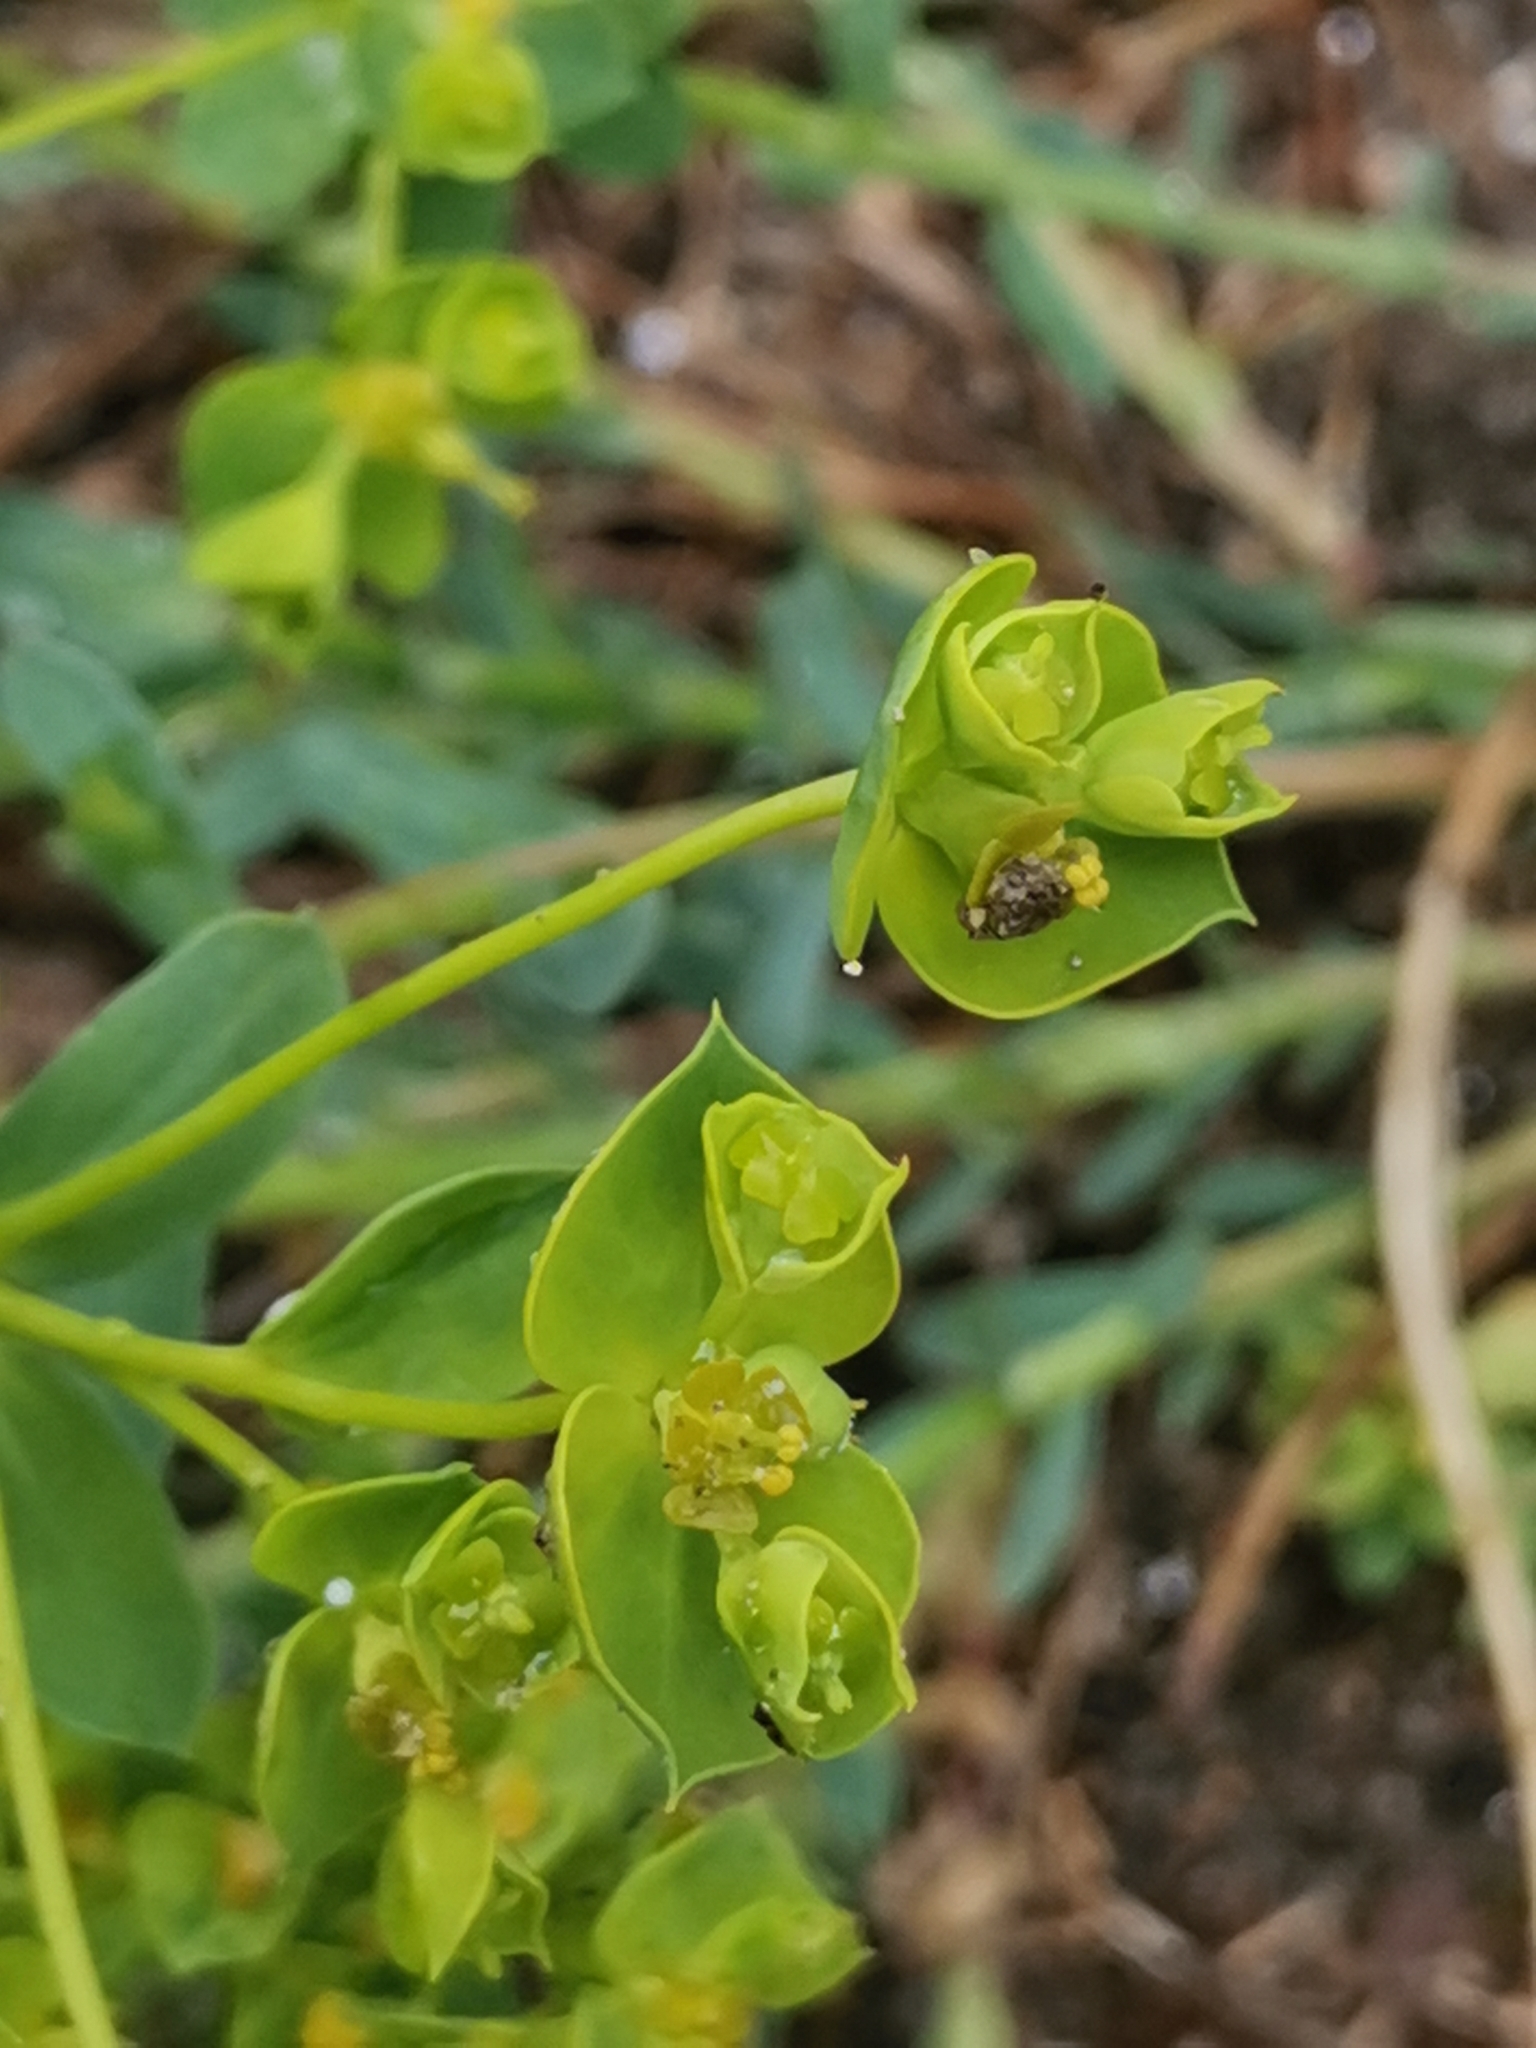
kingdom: Plantae
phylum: Tracheophyta
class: Magnoliopsida
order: Malpighiales
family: Euphorbiaceae
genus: Euphorbia
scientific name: Euphorbia seguieriana
